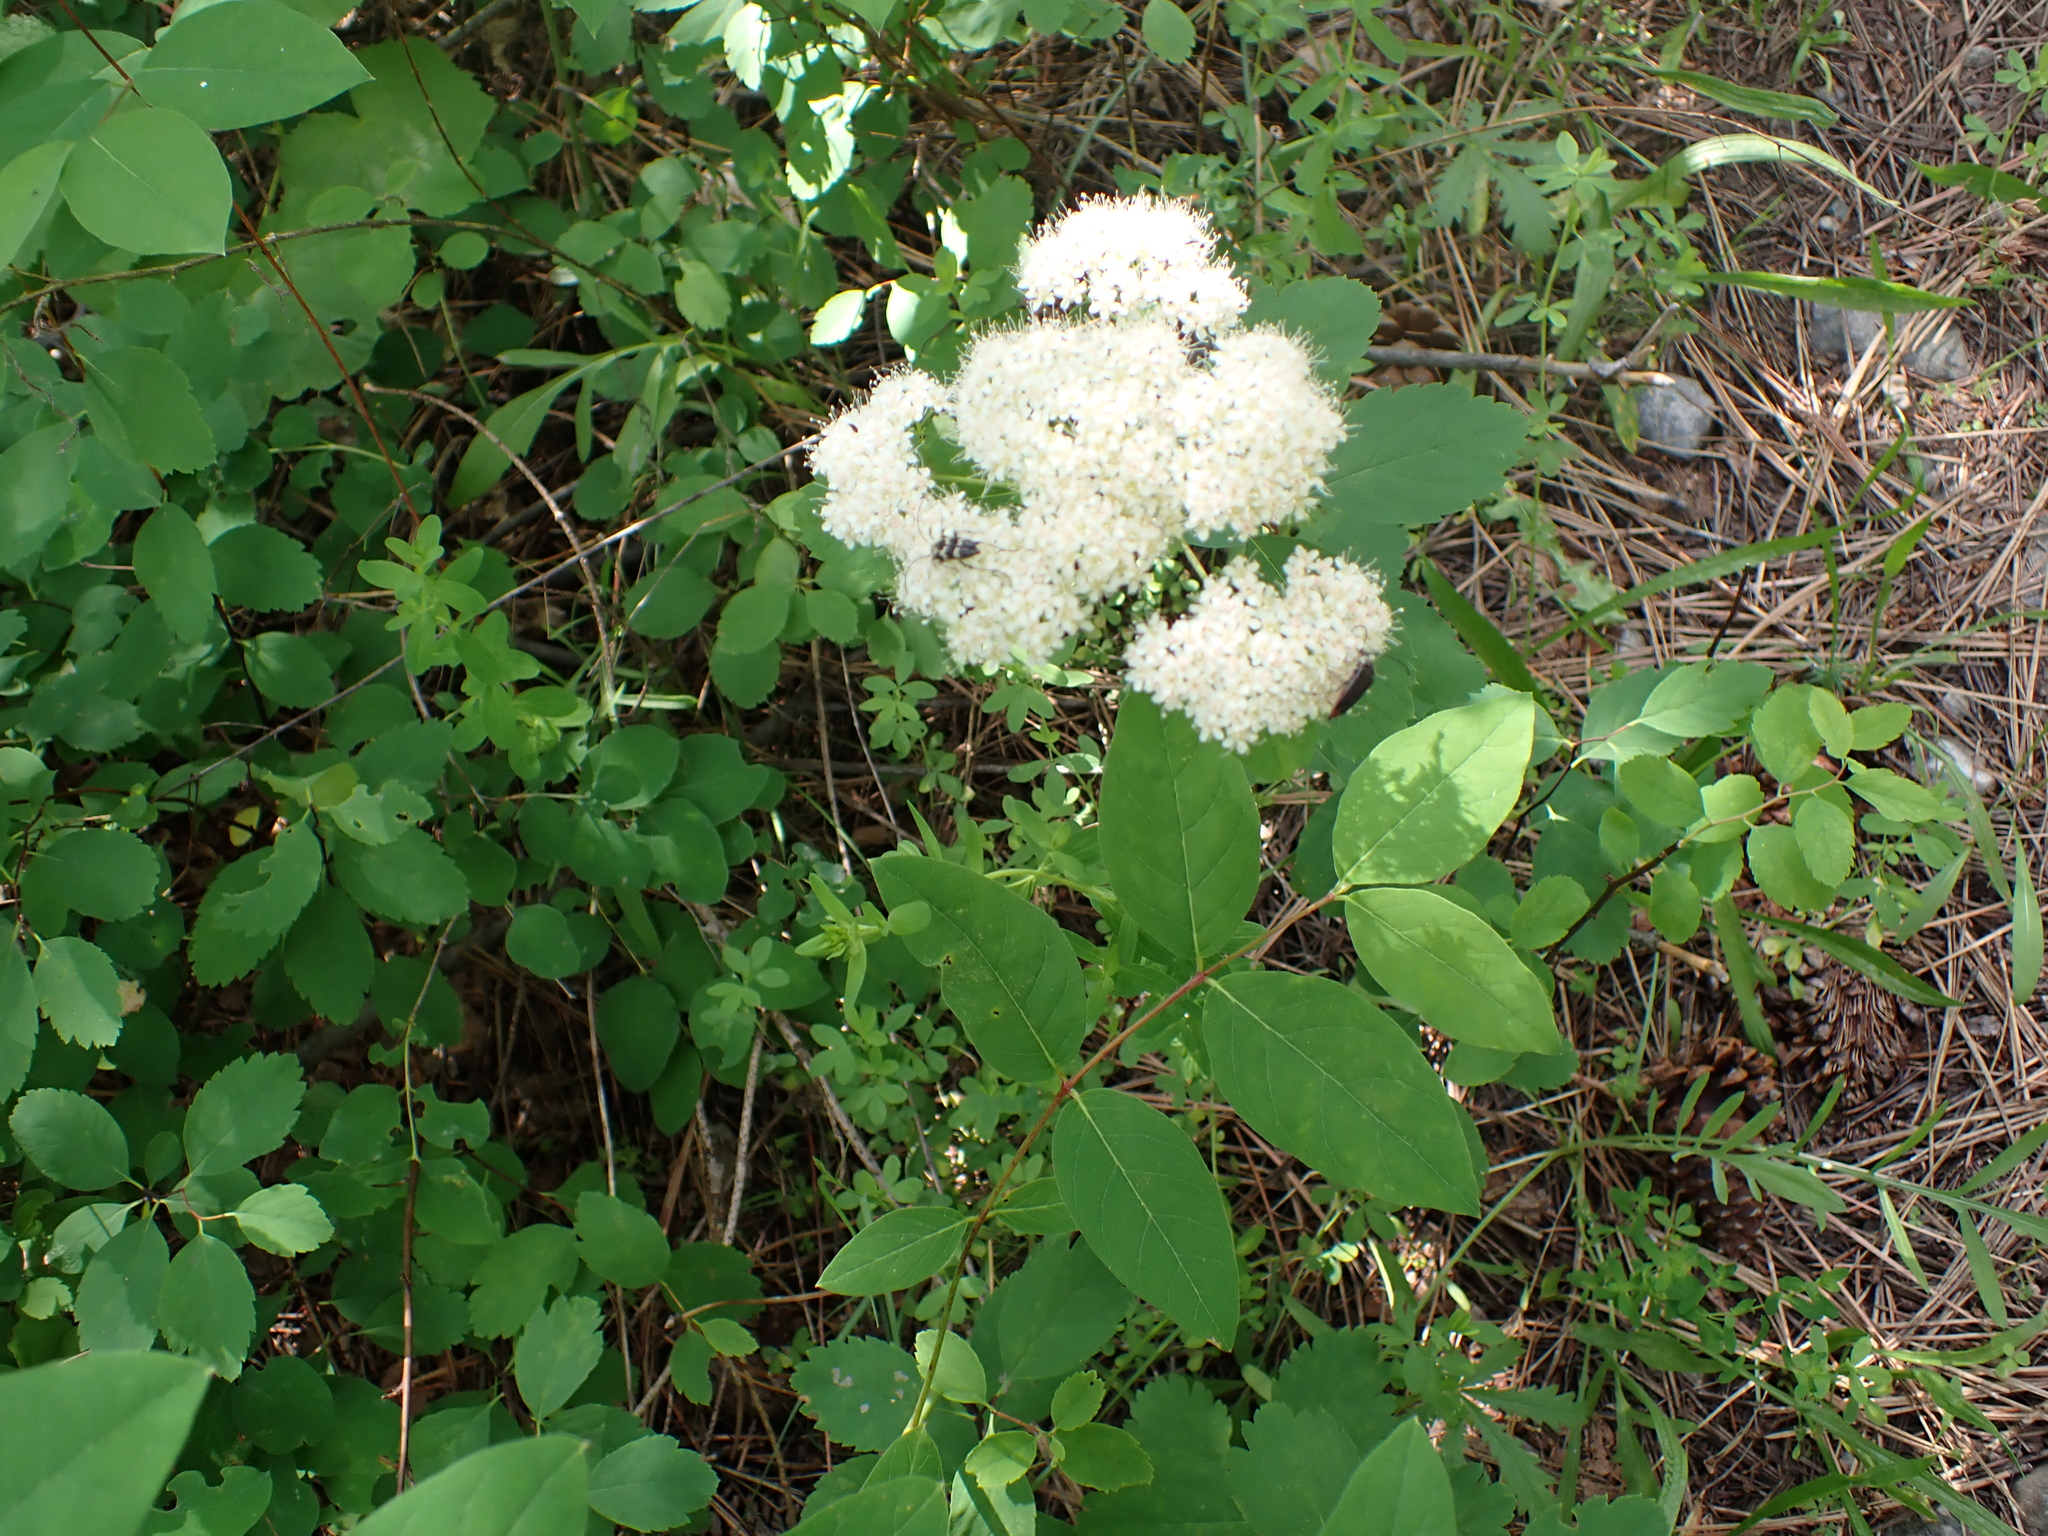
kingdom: Plantae
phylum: Tracheophyta
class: Magnoliopsida
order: Rosales
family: Rosaceae
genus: Spiraea
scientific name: Spiraea lucida
